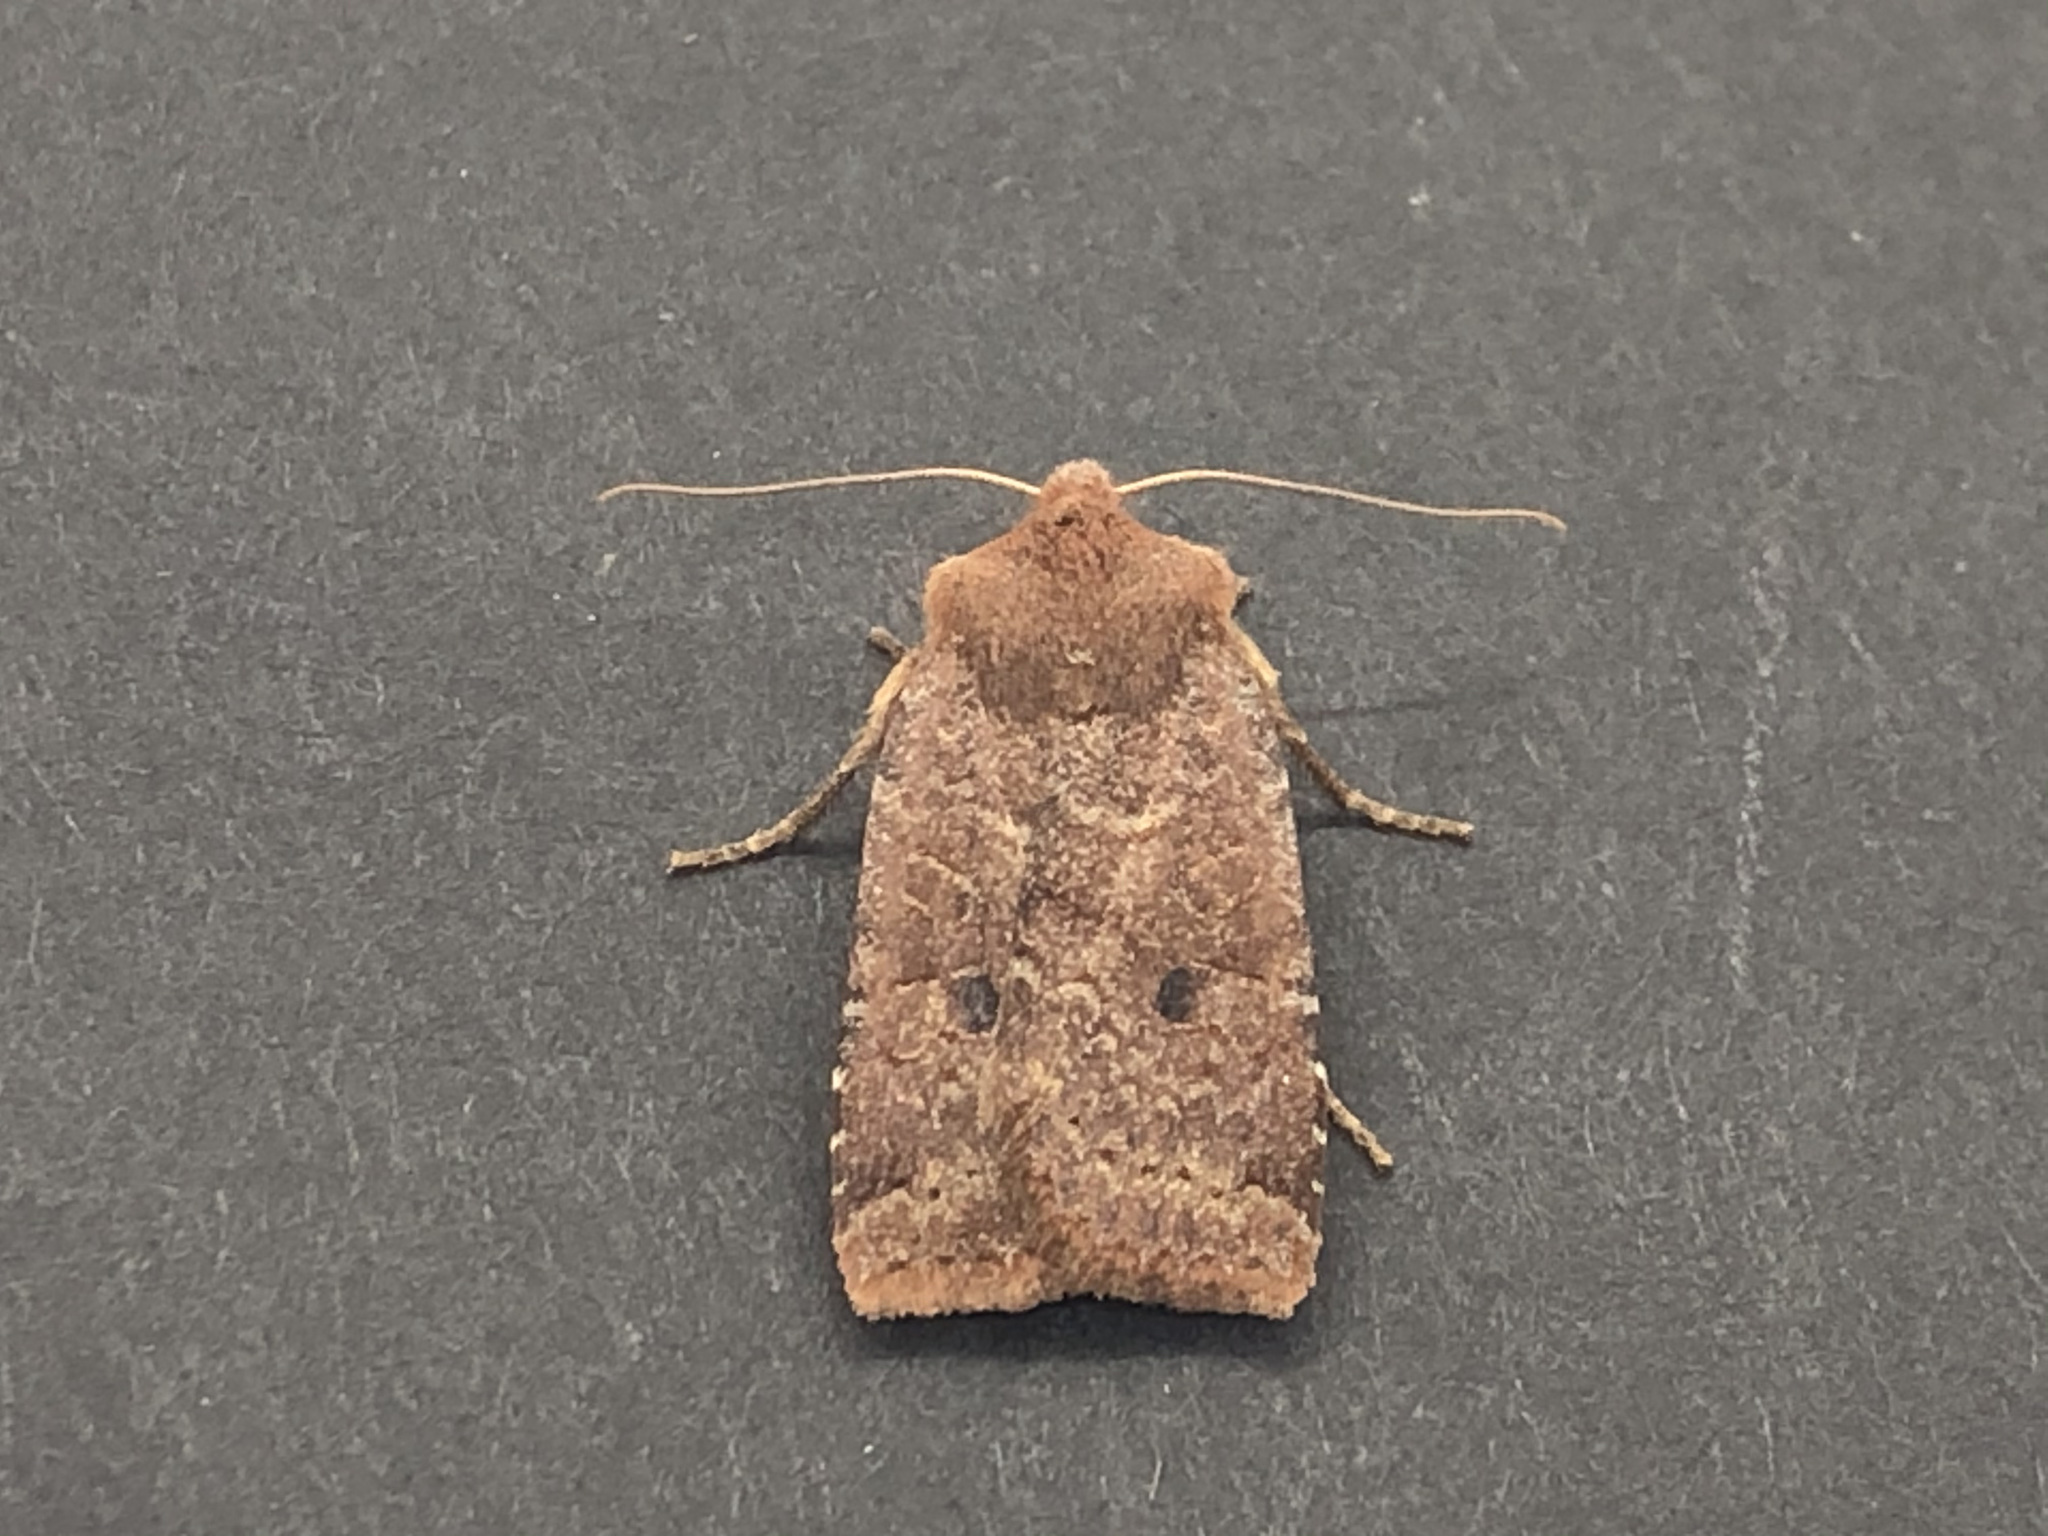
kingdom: Animalia
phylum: Arthropoda
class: Insecta
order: Lepidoptera
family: Noctuidae
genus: Conistra
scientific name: Conistra vaccinii
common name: Chestnut
